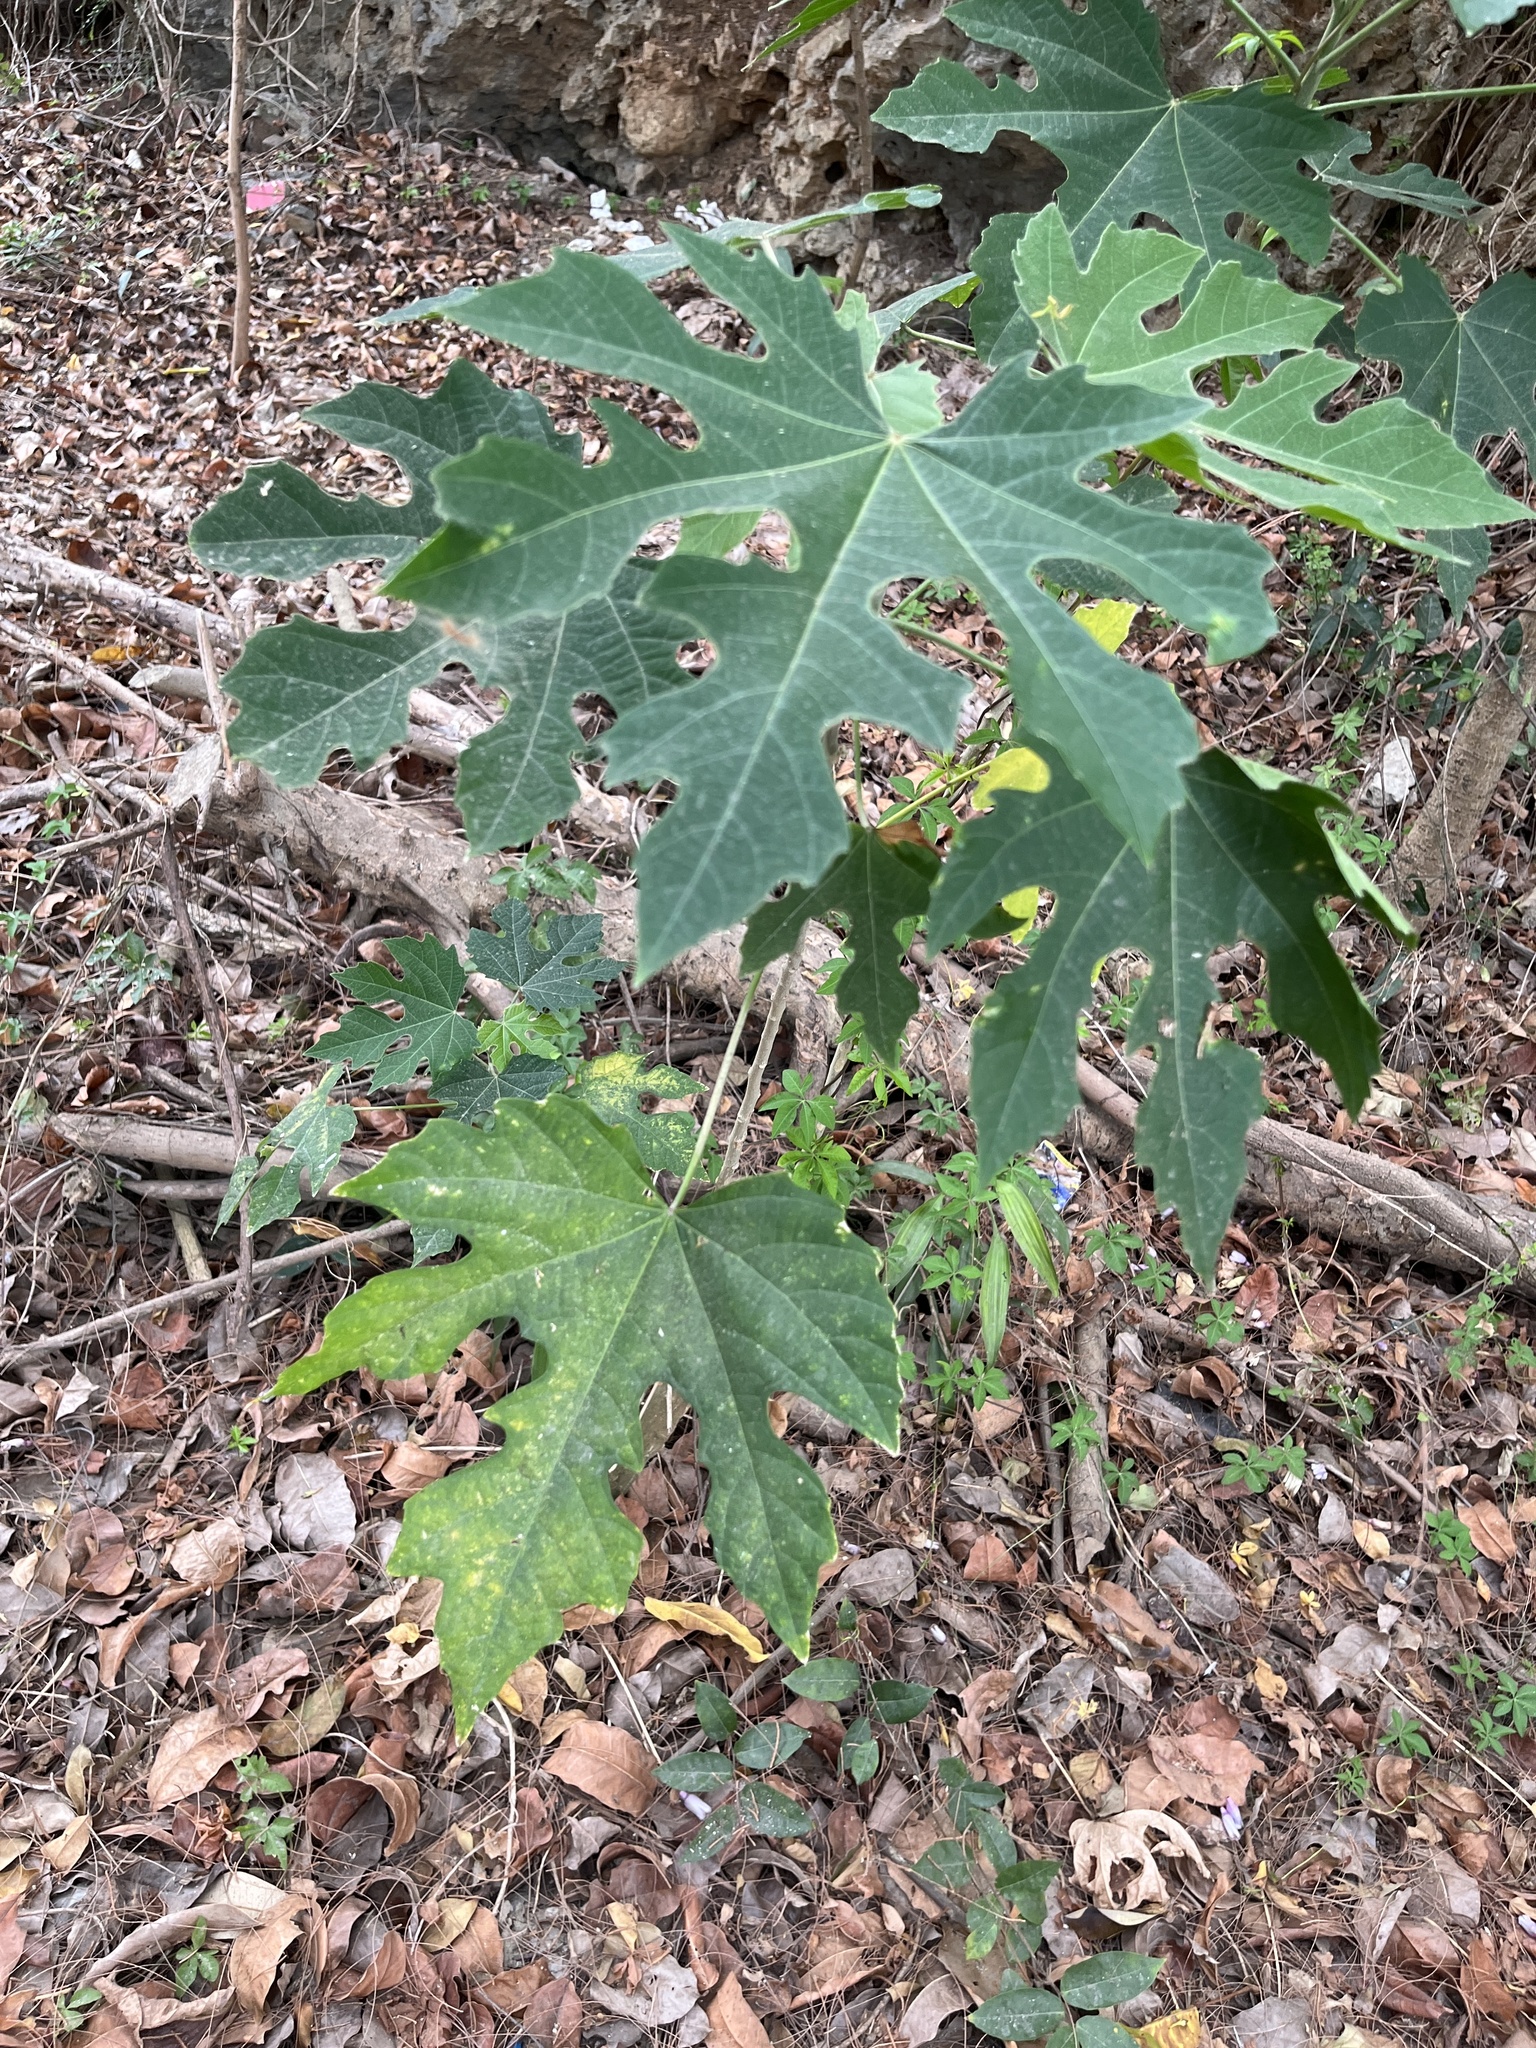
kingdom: Plantae
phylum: Tracheophyta
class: Magnoliopsida
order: Malpighiales
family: Euphorbiaceae
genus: Melanolepis
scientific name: Melanolepis multiglandulosa
